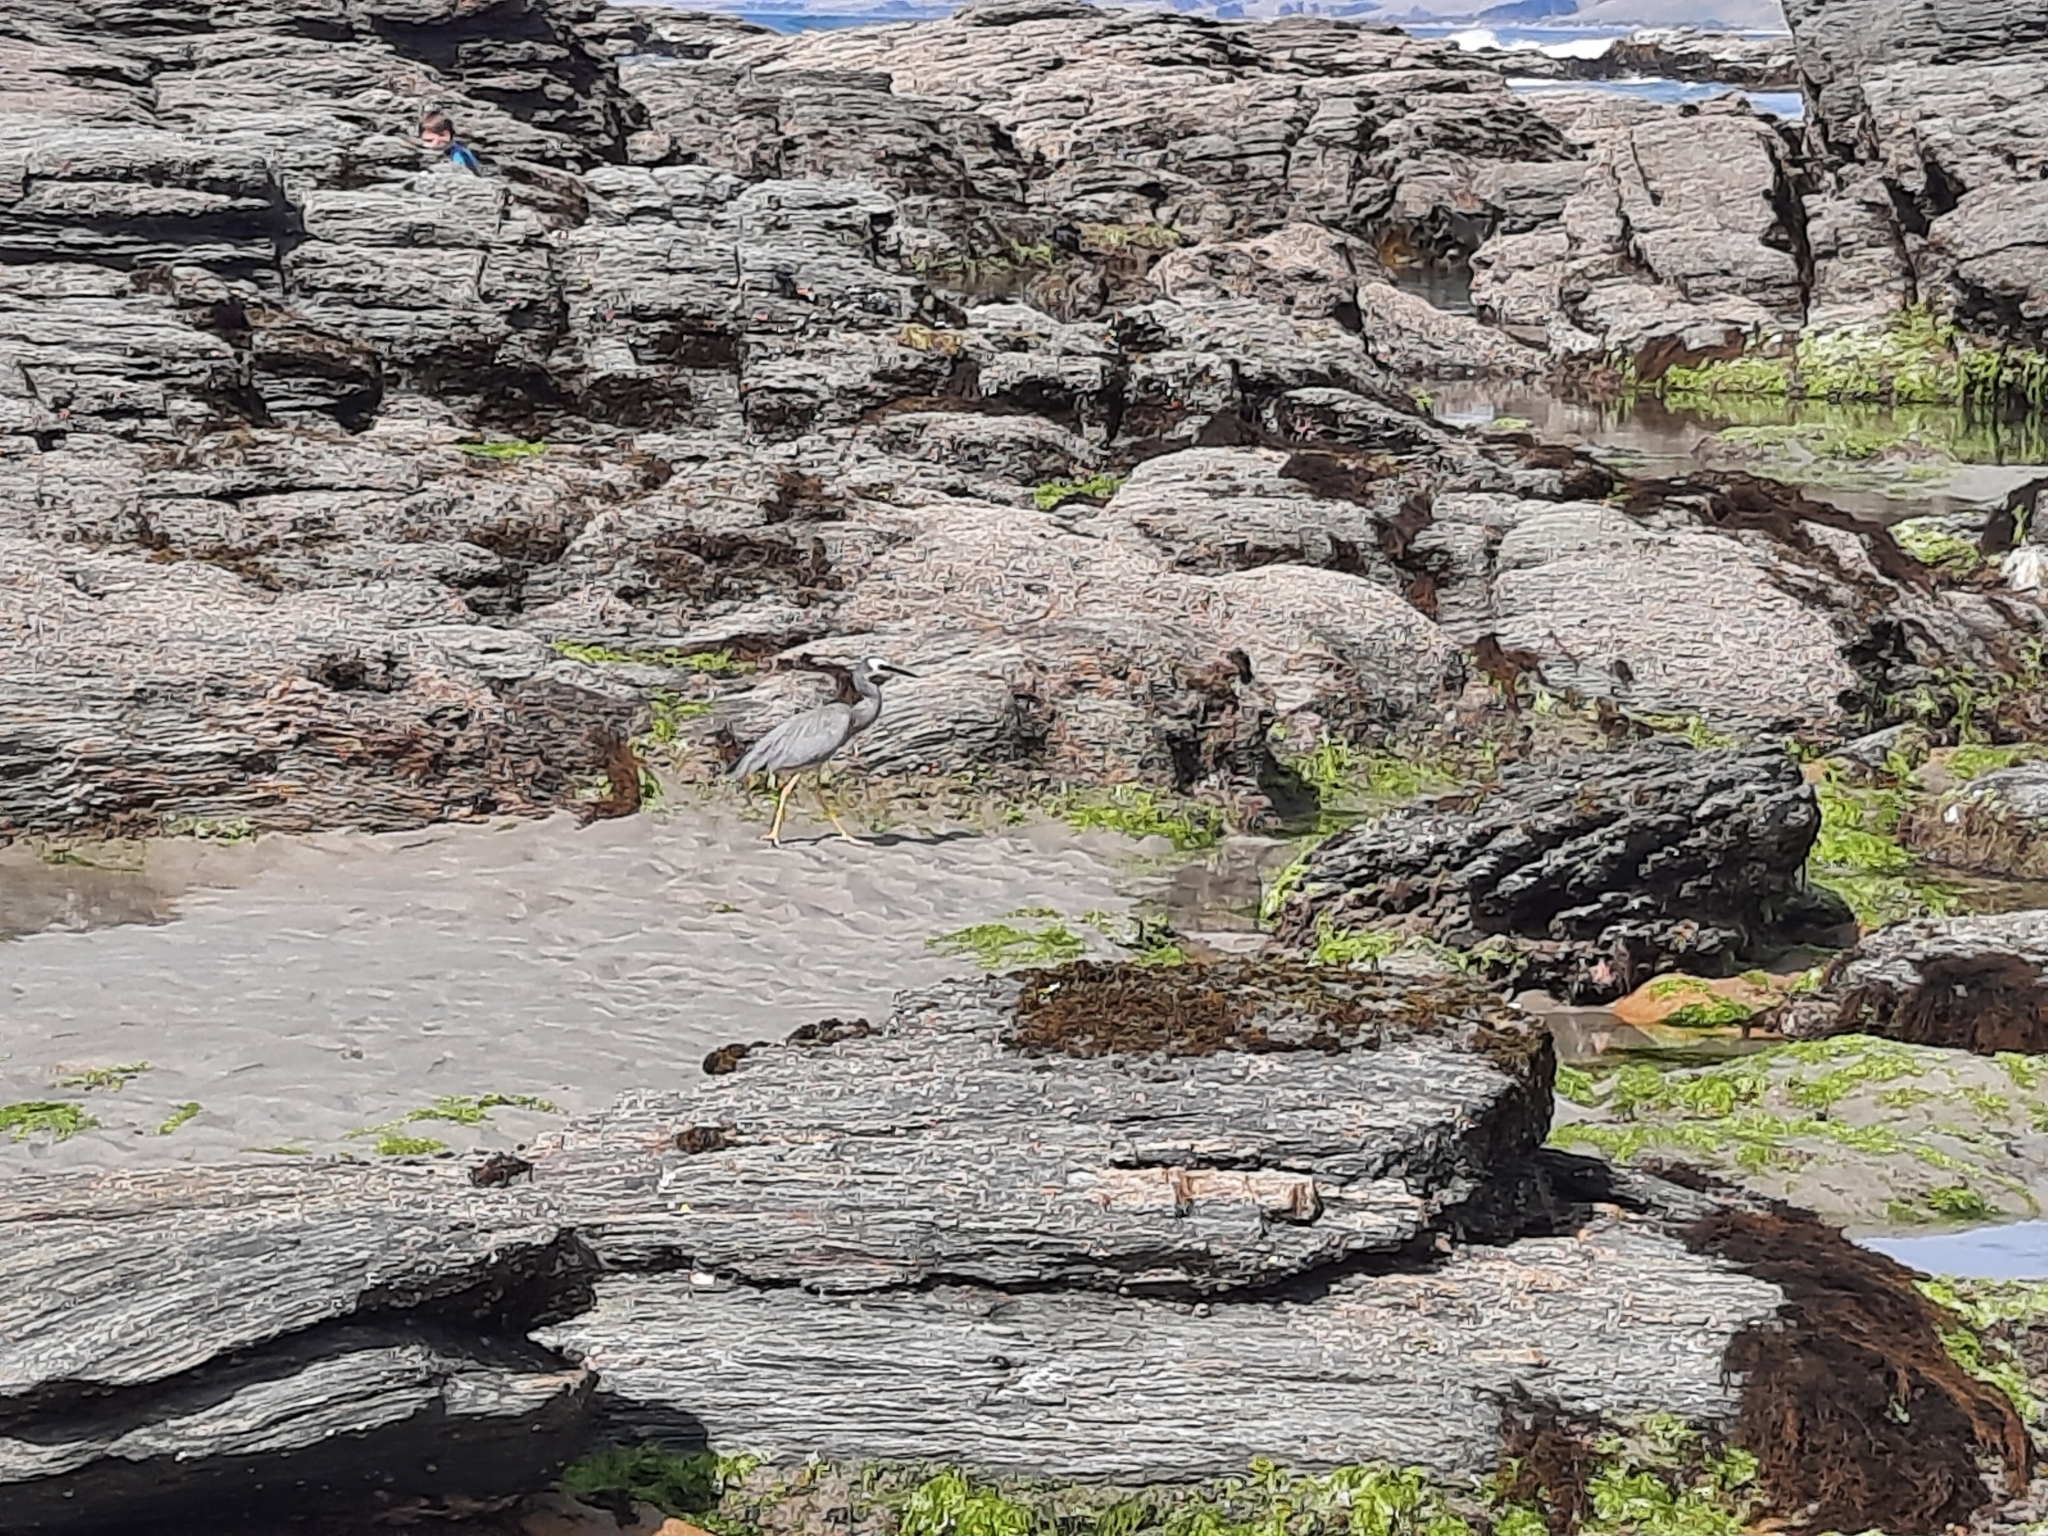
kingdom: Animalia
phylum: Chordata
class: Aves
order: Pelecaniformes
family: Ardeidae
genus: Egretta
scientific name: Egretta novaehollandiae
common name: White-faced heron
